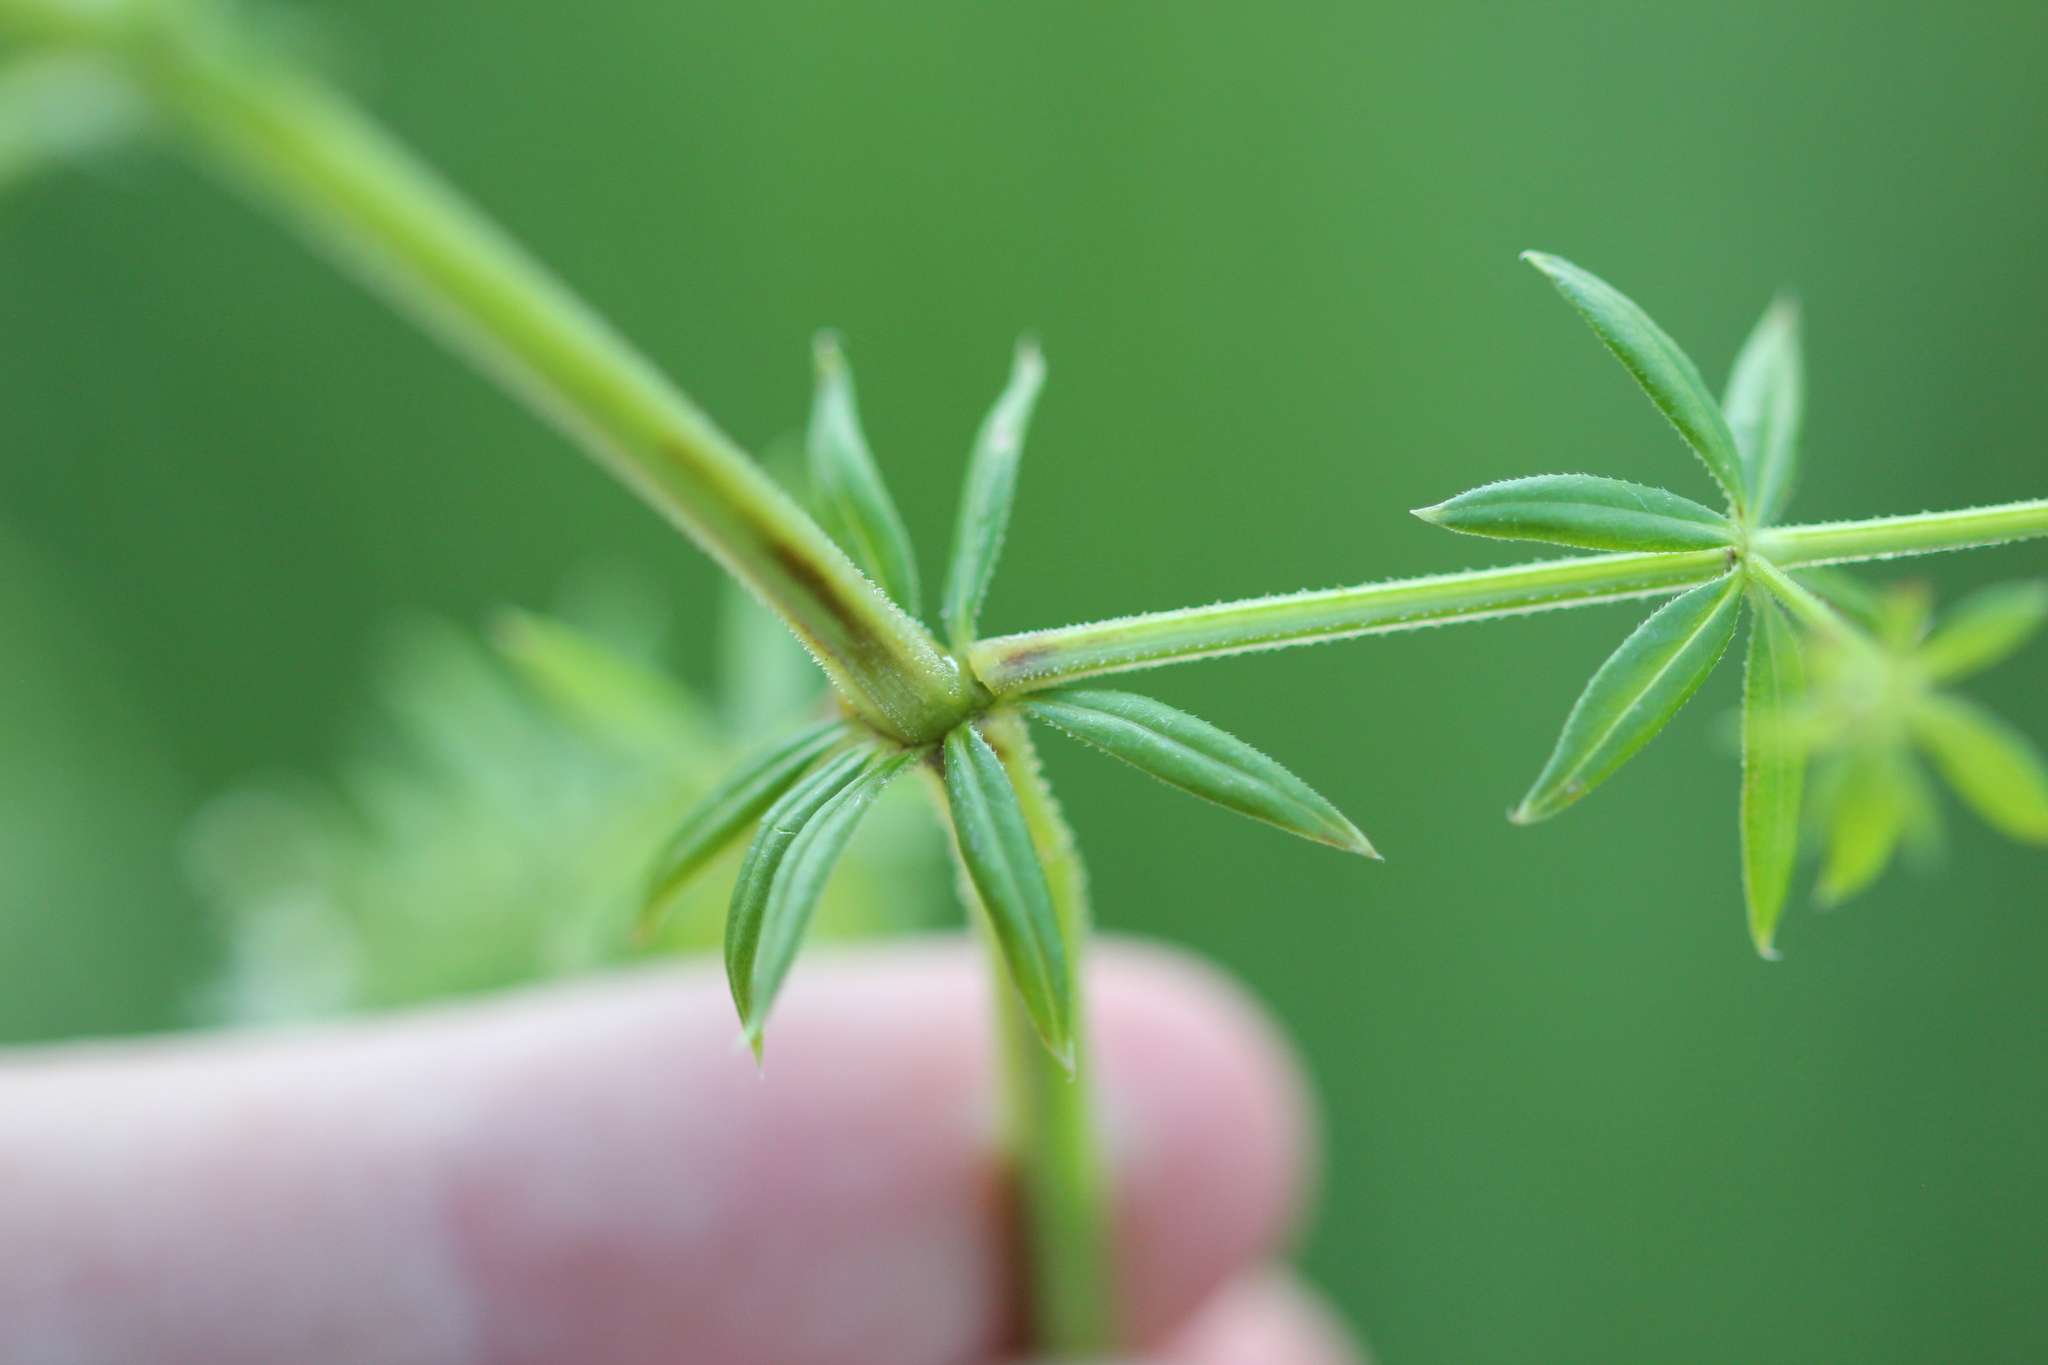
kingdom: Plantae
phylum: Tracheophyta
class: Magnoliopsida
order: Gentianales
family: Rubiaceae
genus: Galium
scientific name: Galium asprellum
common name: Rough bedstraw
